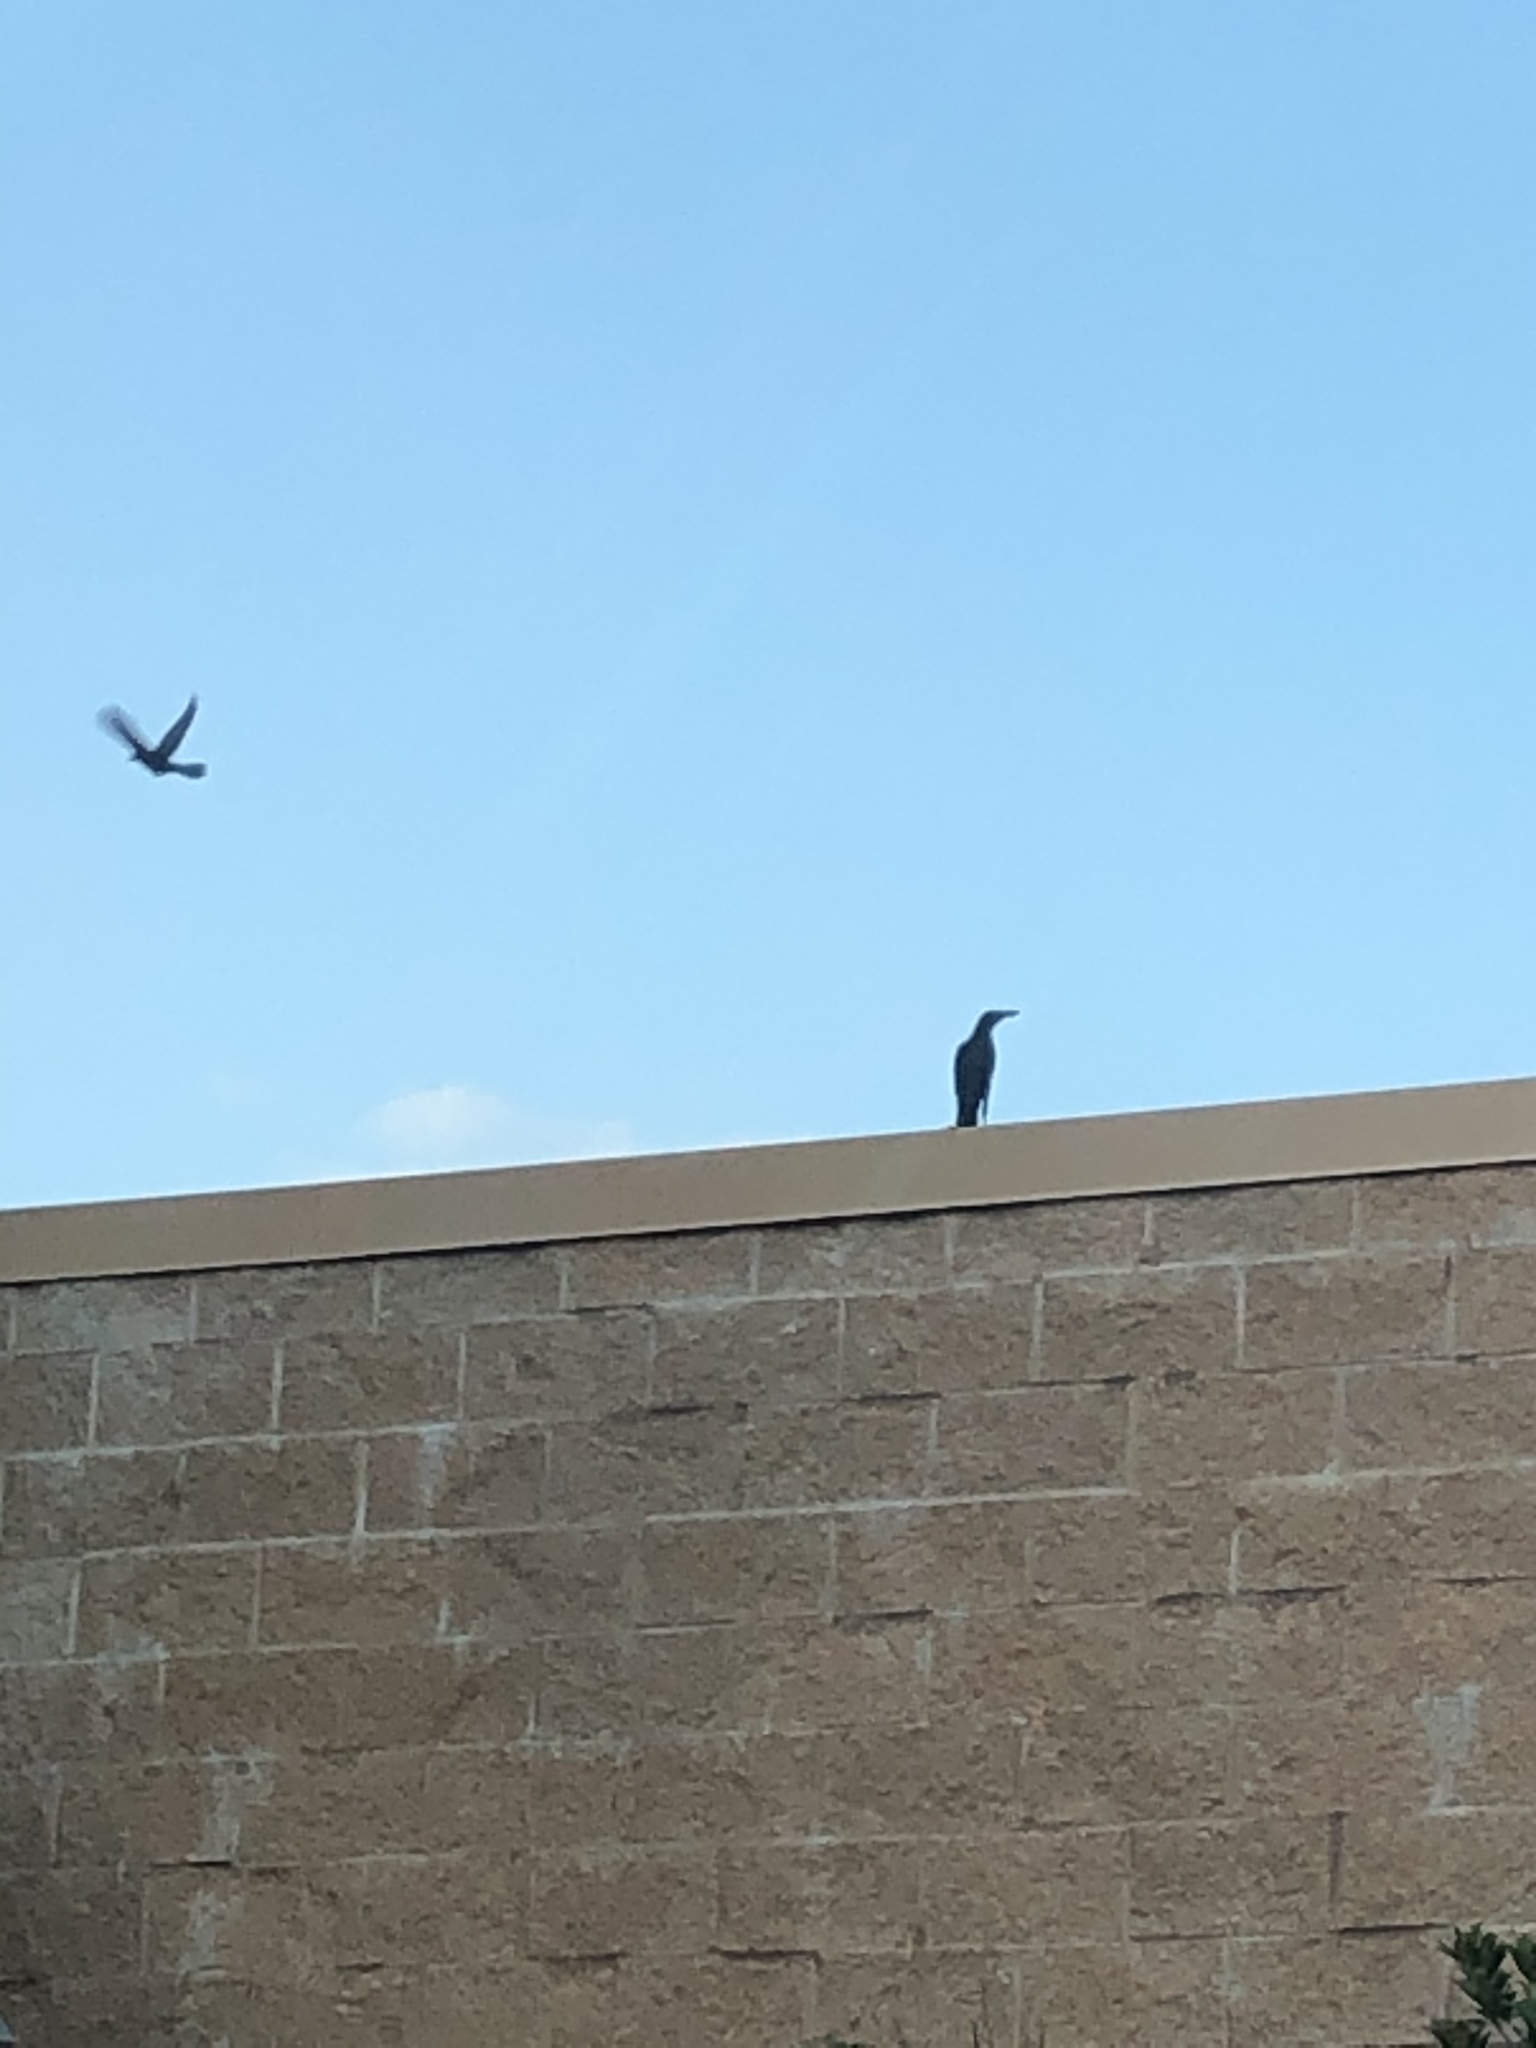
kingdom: Animalia
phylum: Chordata
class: Aves
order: Passeriformes
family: Icteridae
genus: Quiscalus
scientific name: Quiscalus mexicanus
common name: Great-tailed grackle
